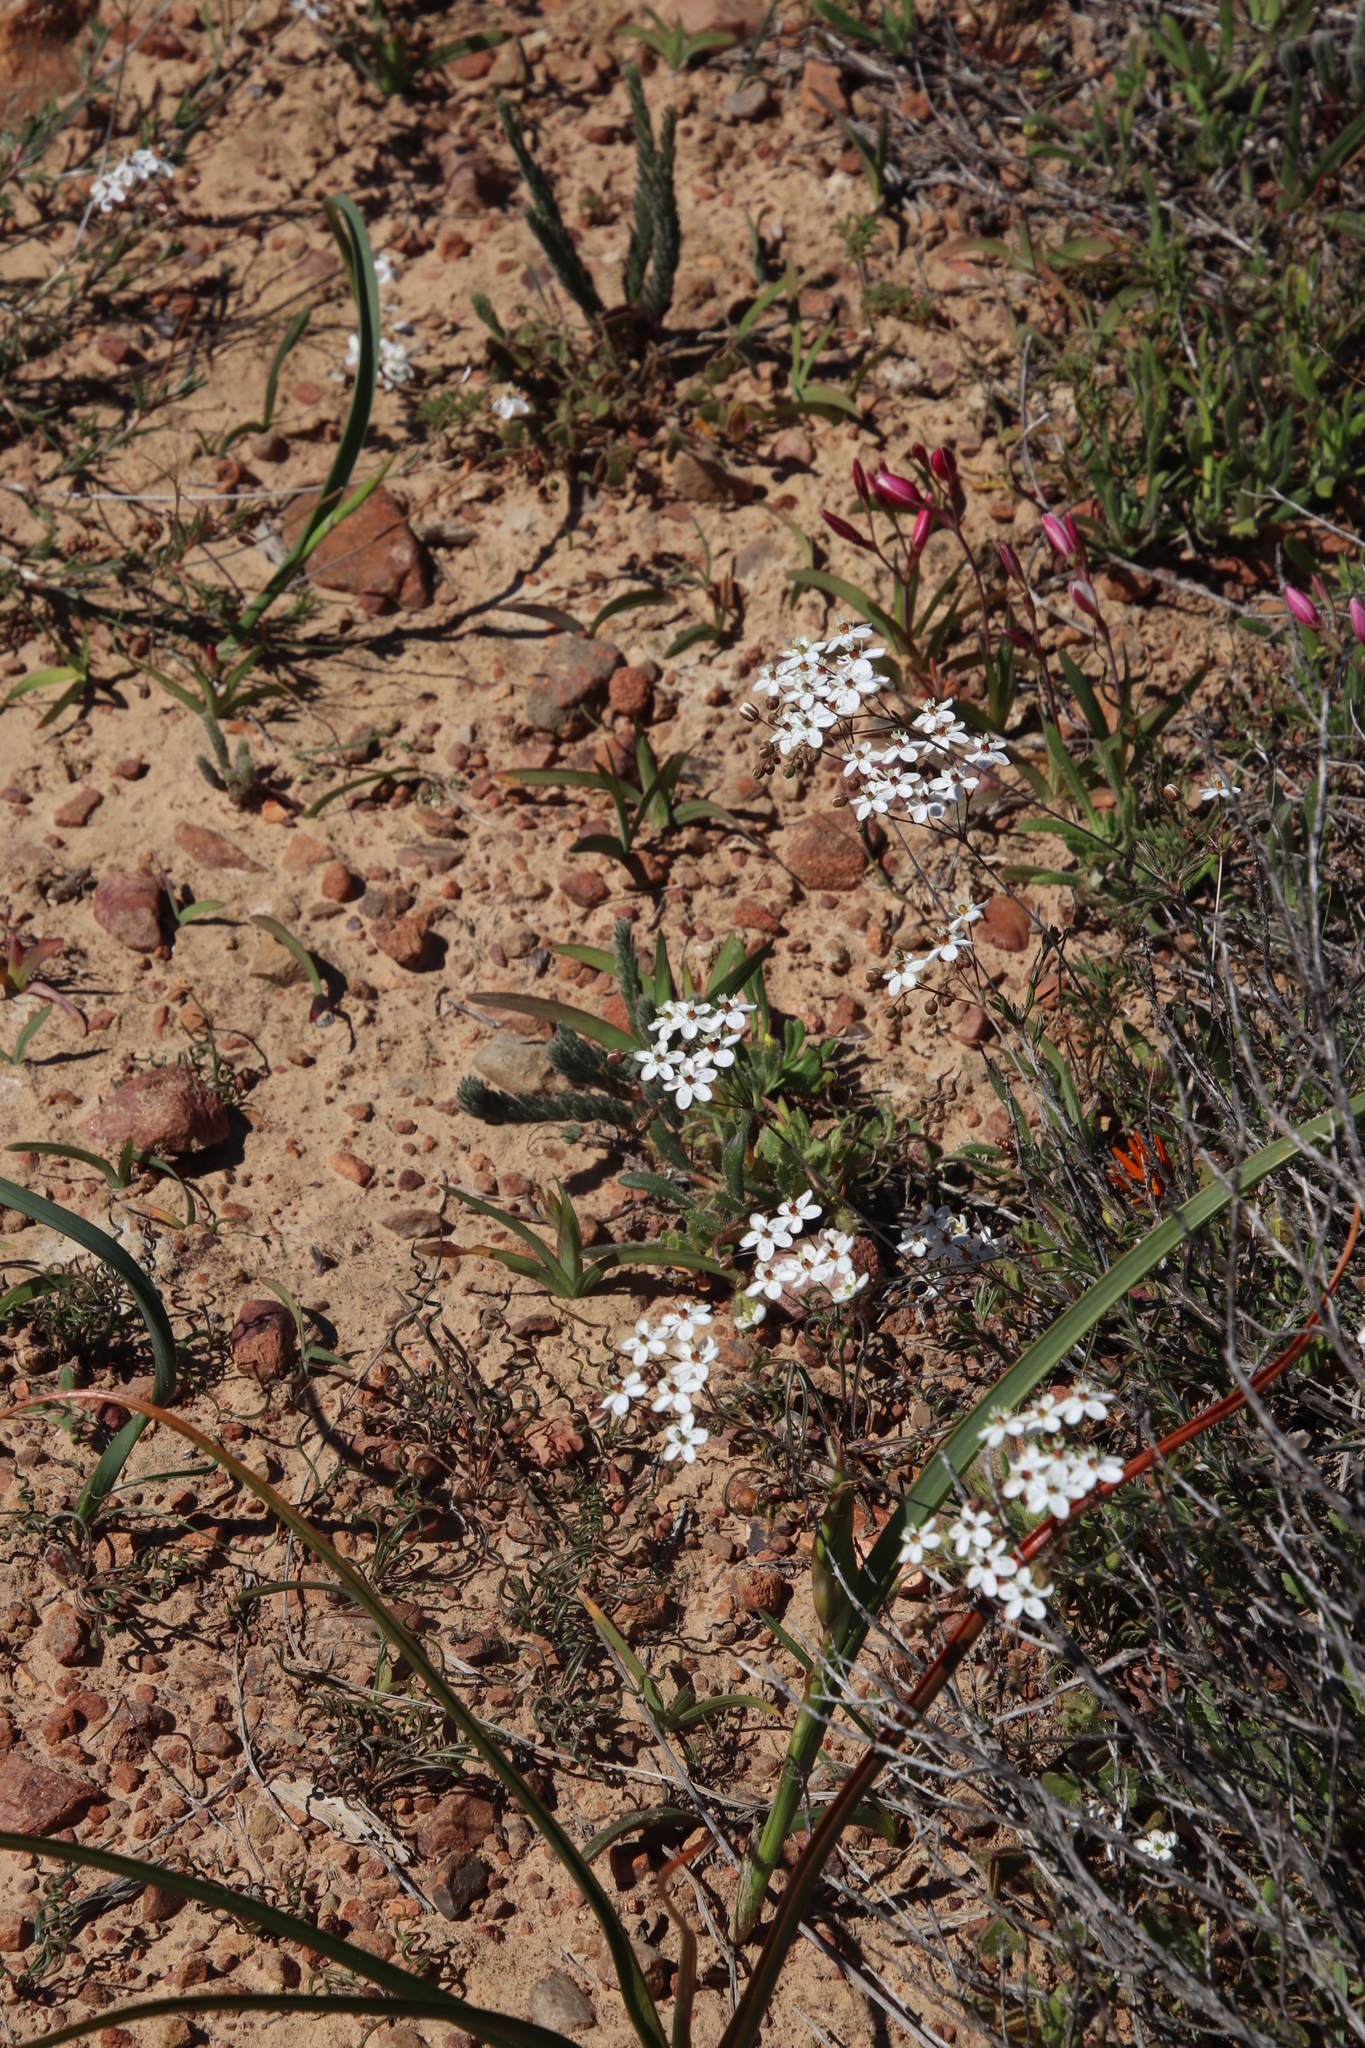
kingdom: Plantae
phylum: Tracheophyta
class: Magnoliopsida
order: Caryophyllales
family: Molluginaceae
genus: Pharnaceum
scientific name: Pharnaceum aurantium
